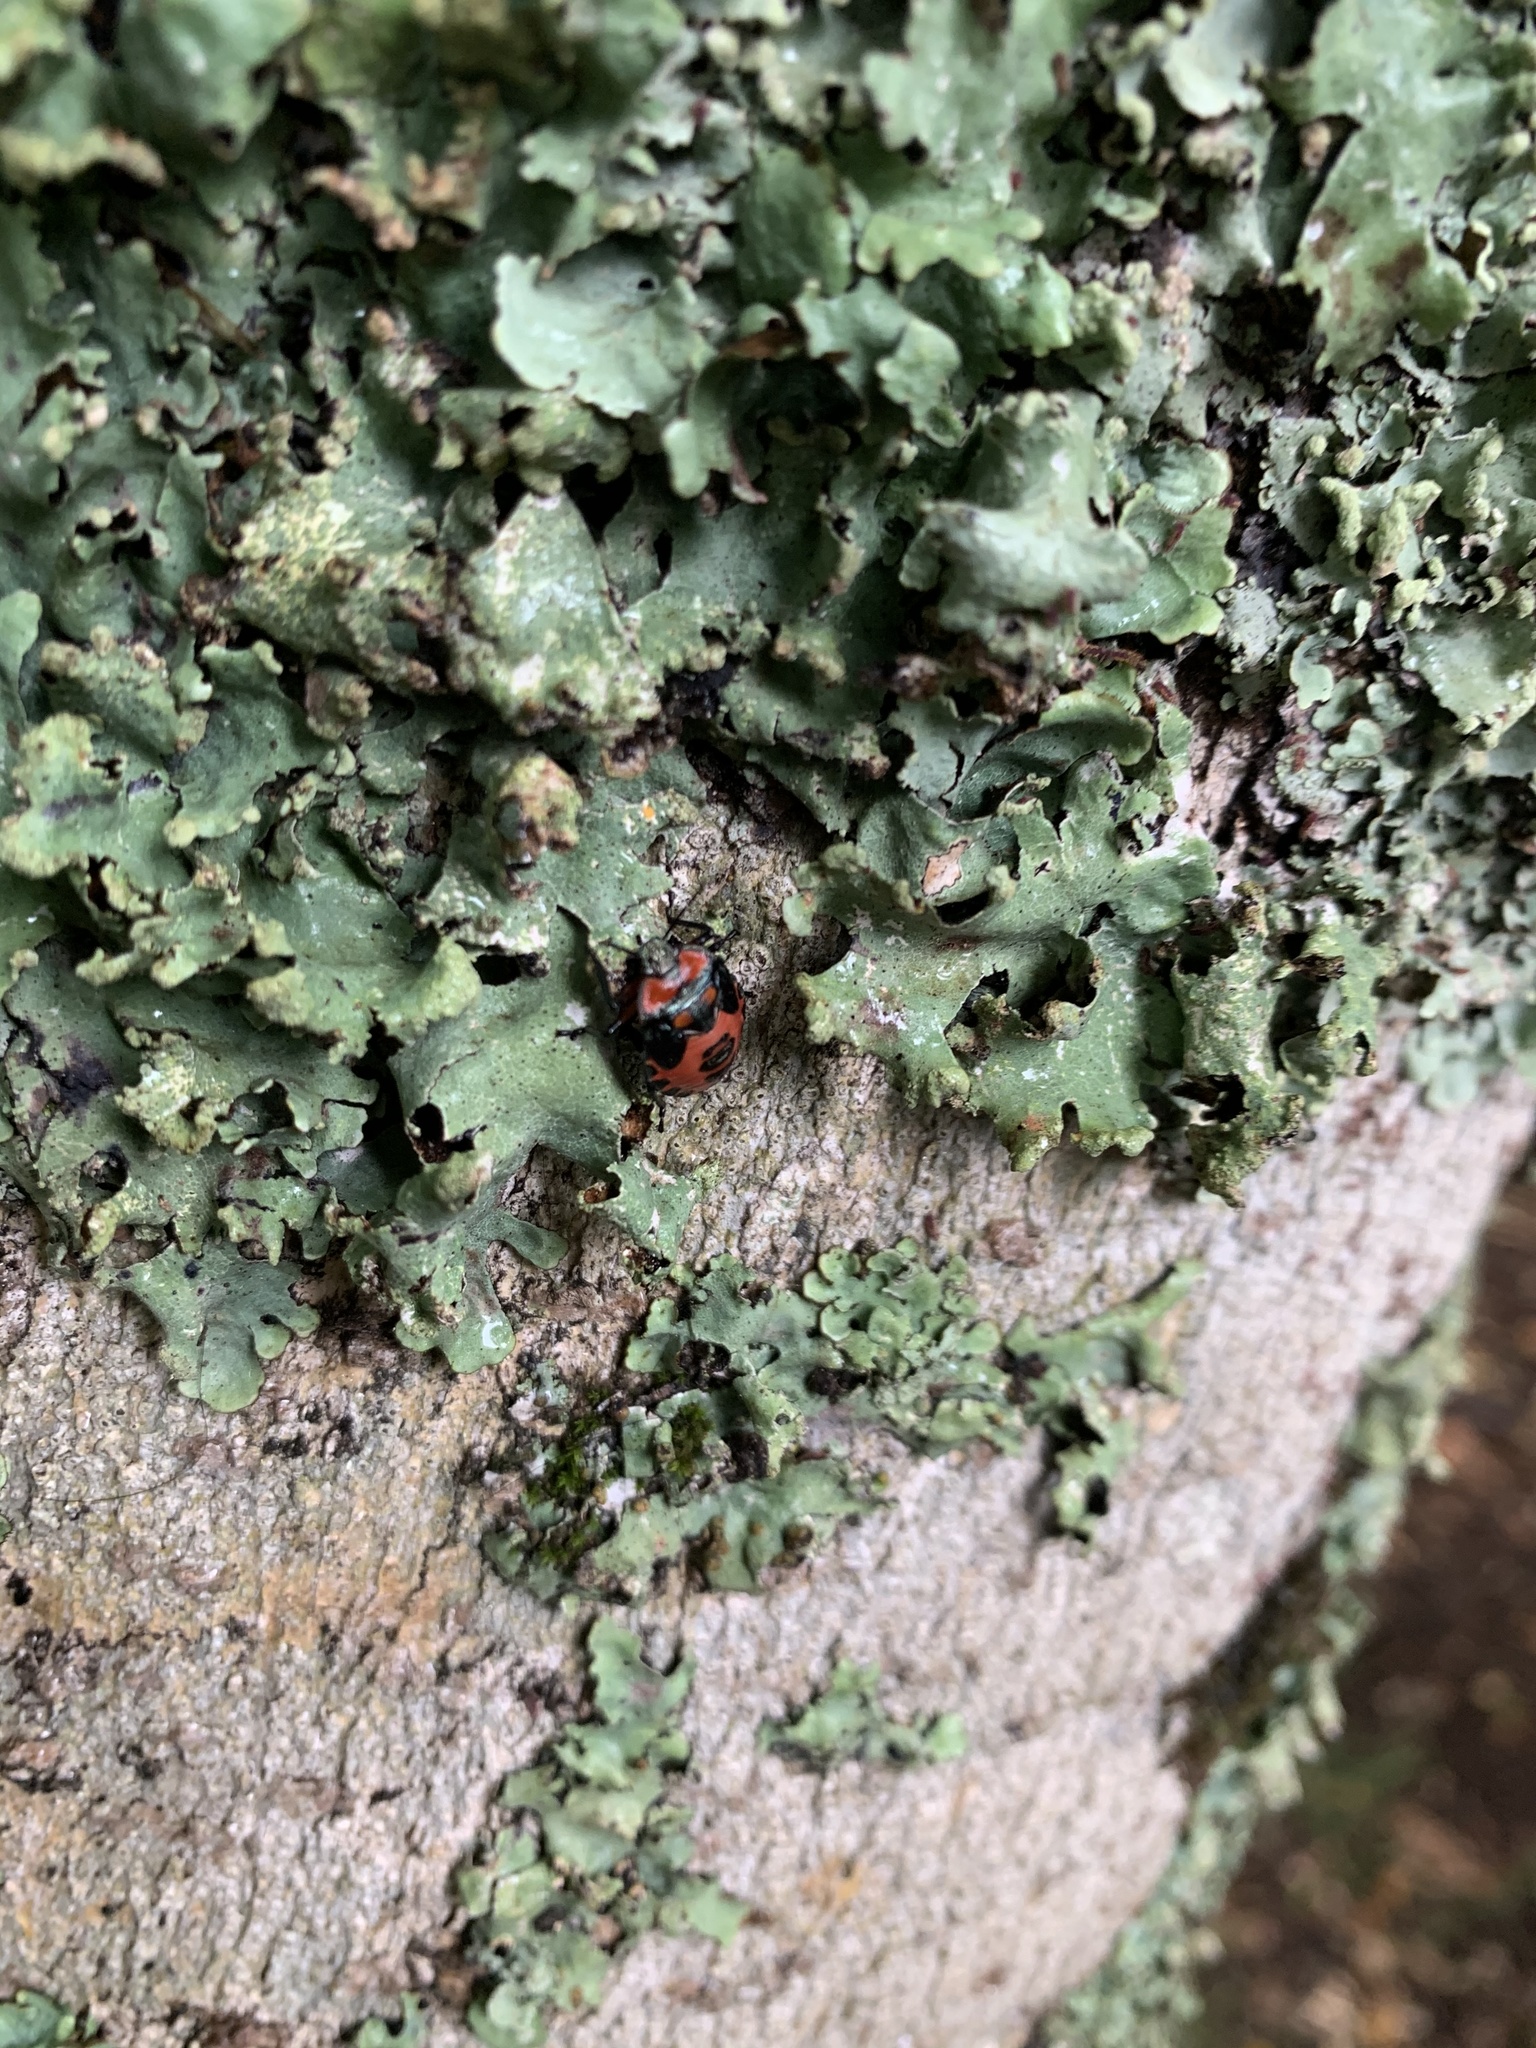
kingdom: Animalia
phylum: Arthropoda
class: Insecta
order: Hemiptera
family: Pentatomidae
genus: Brontocoris
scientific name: Brontocoris
